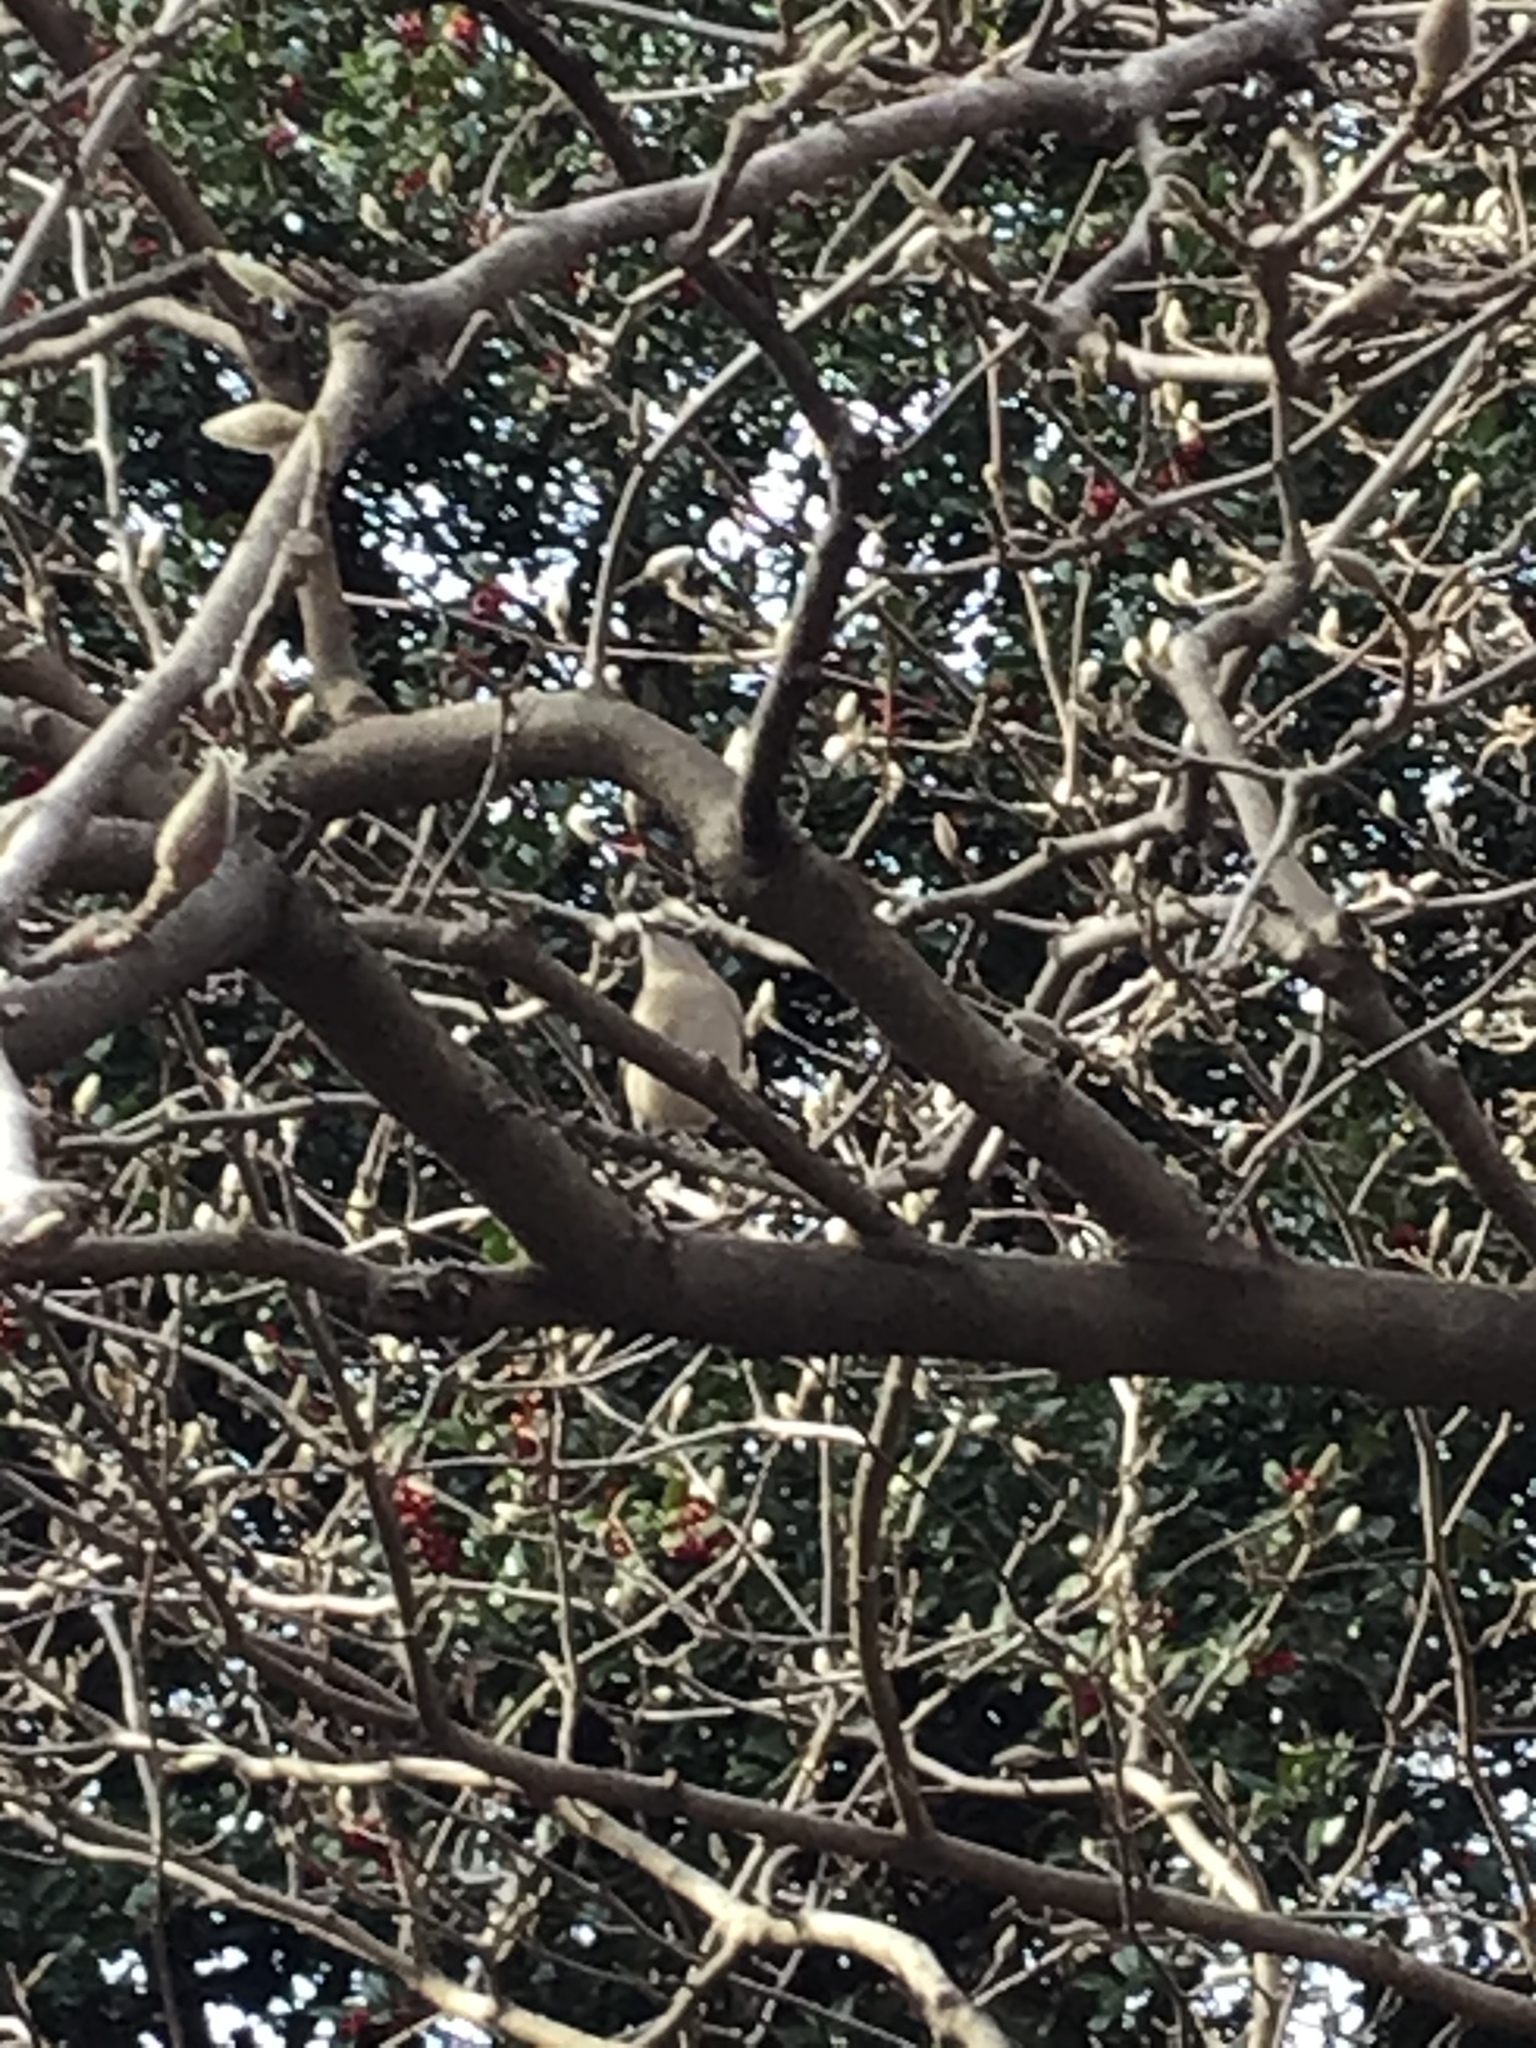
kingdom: Animalia
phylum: Chordata
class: Aves
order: Passeriformes
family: Mimidae
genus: Mimus
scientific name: Mimus polyglottos
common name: Northern mockingbird
